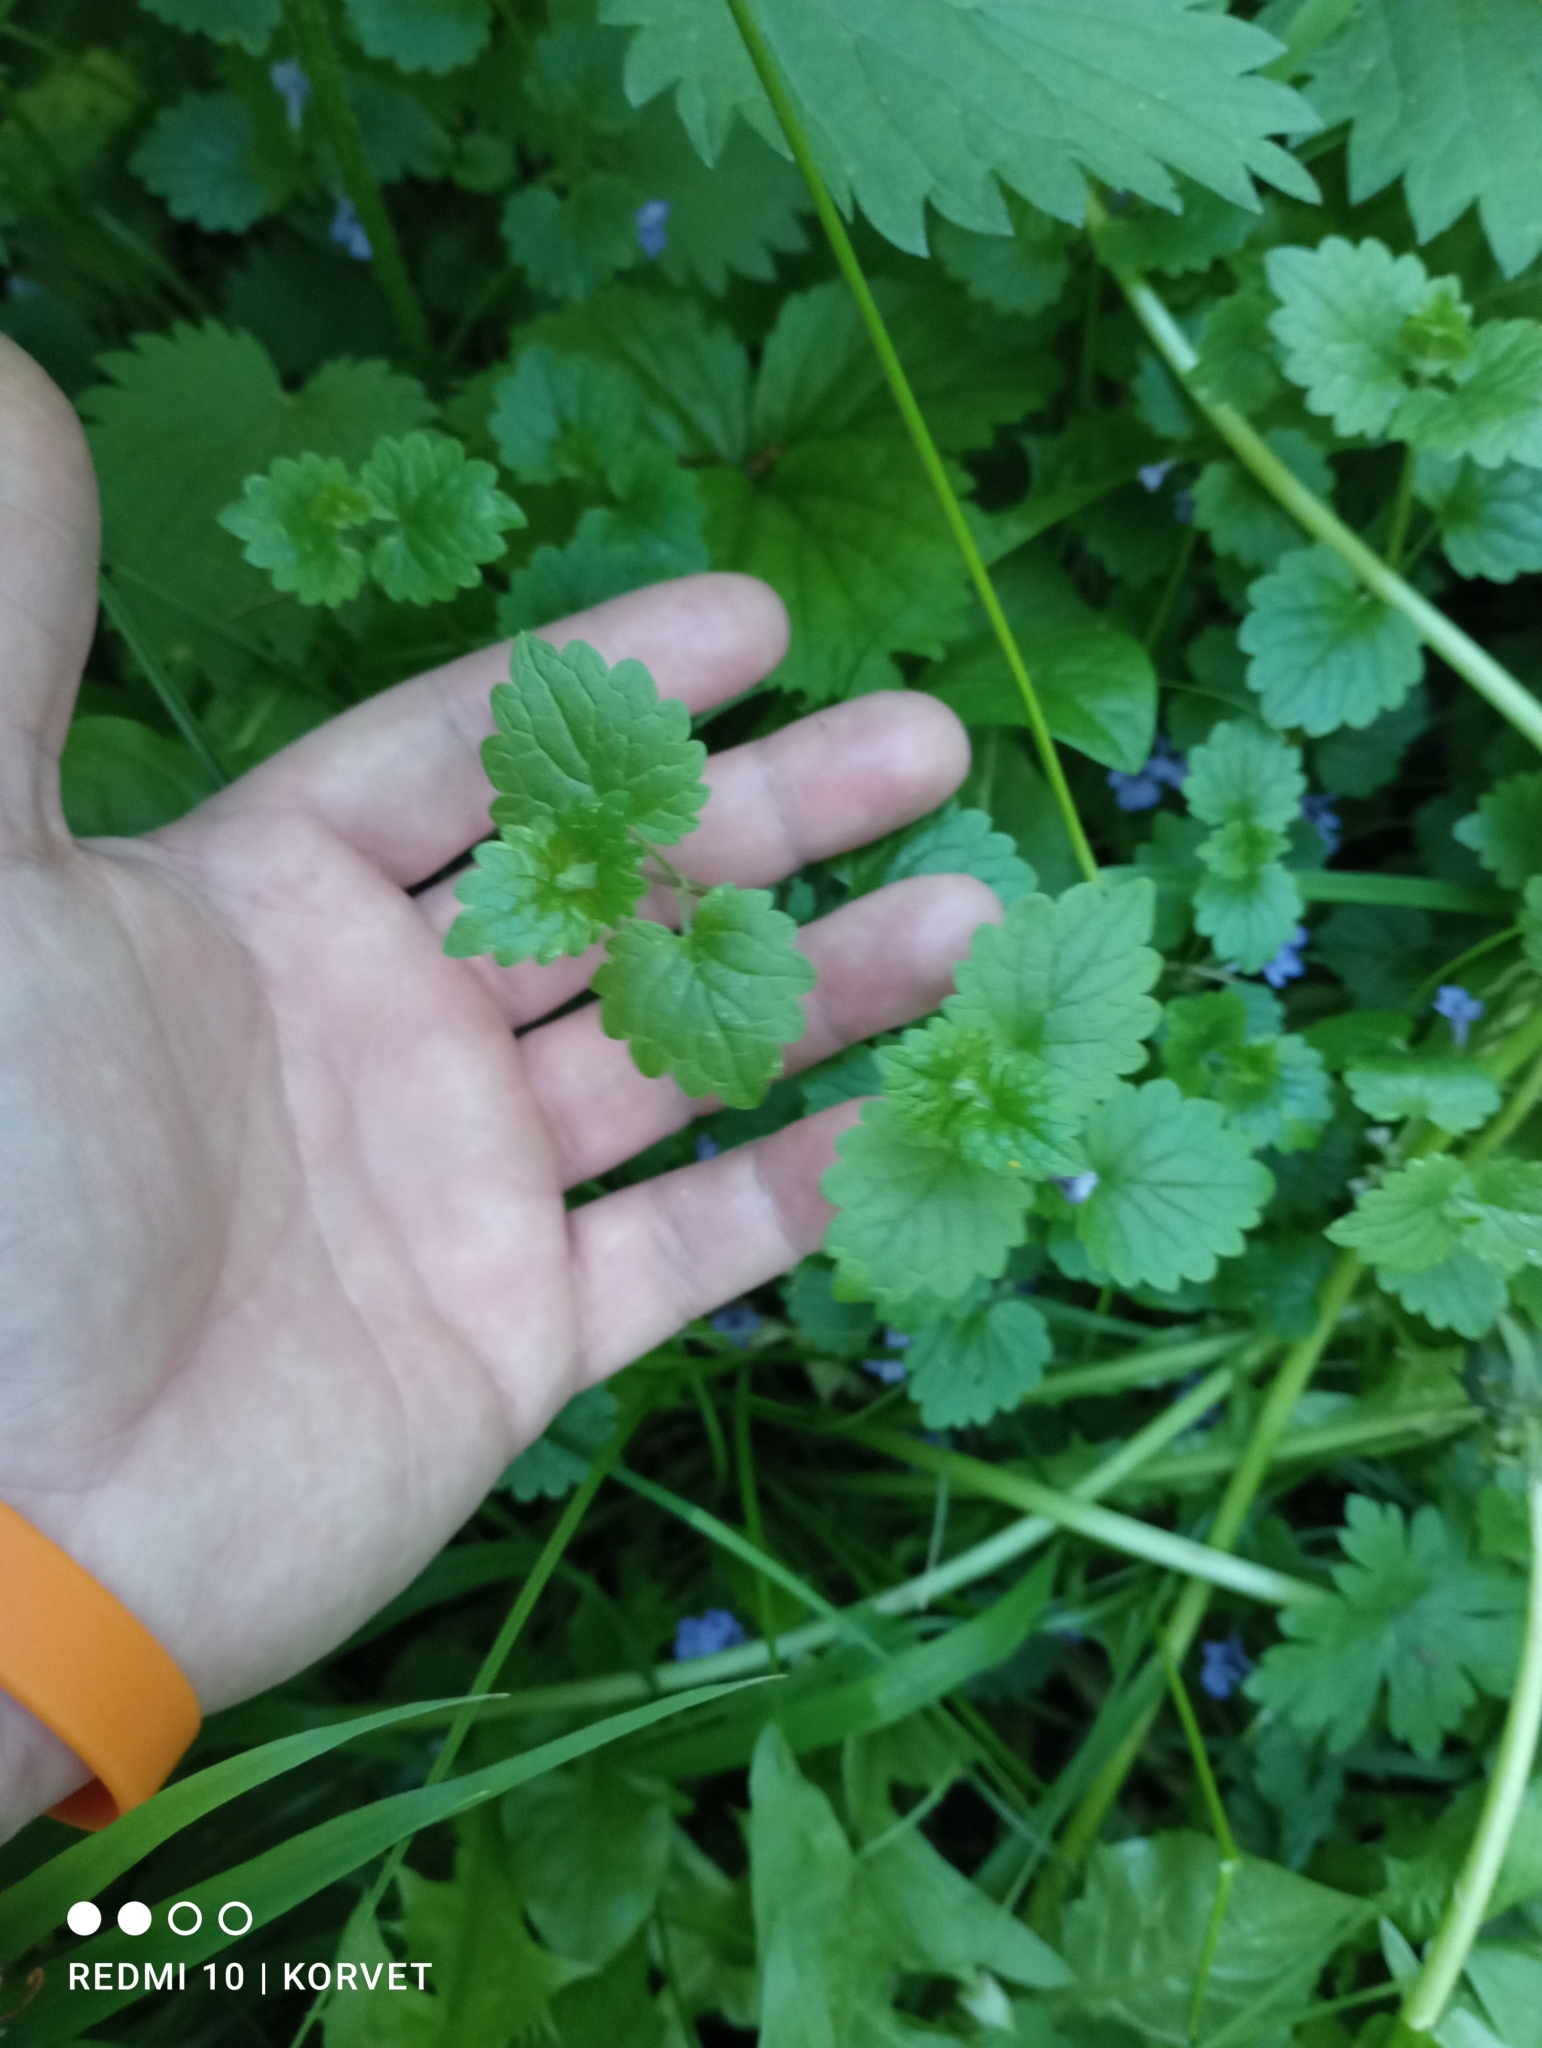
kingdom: Plantae
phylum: Tracheophyta
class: Magnoliopsida
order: Lamiales
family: Lamiaceae
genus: Glechoma
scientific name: Glechoma hederacea
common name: Ground ivy
